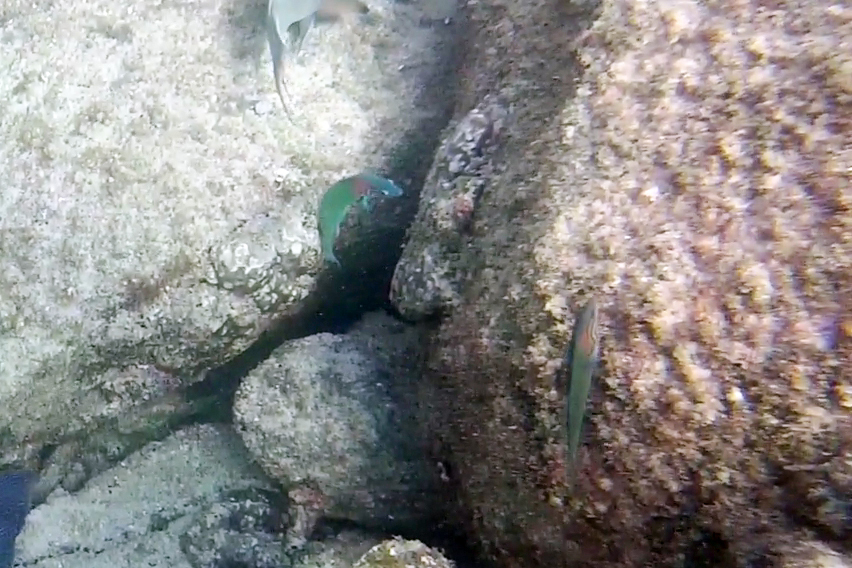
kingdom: Animalia
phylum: Chordata
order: Perciformes
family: Labridae
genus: Thalassoma
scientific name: Thalassoma grammaticum
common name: Sunset wrasse
